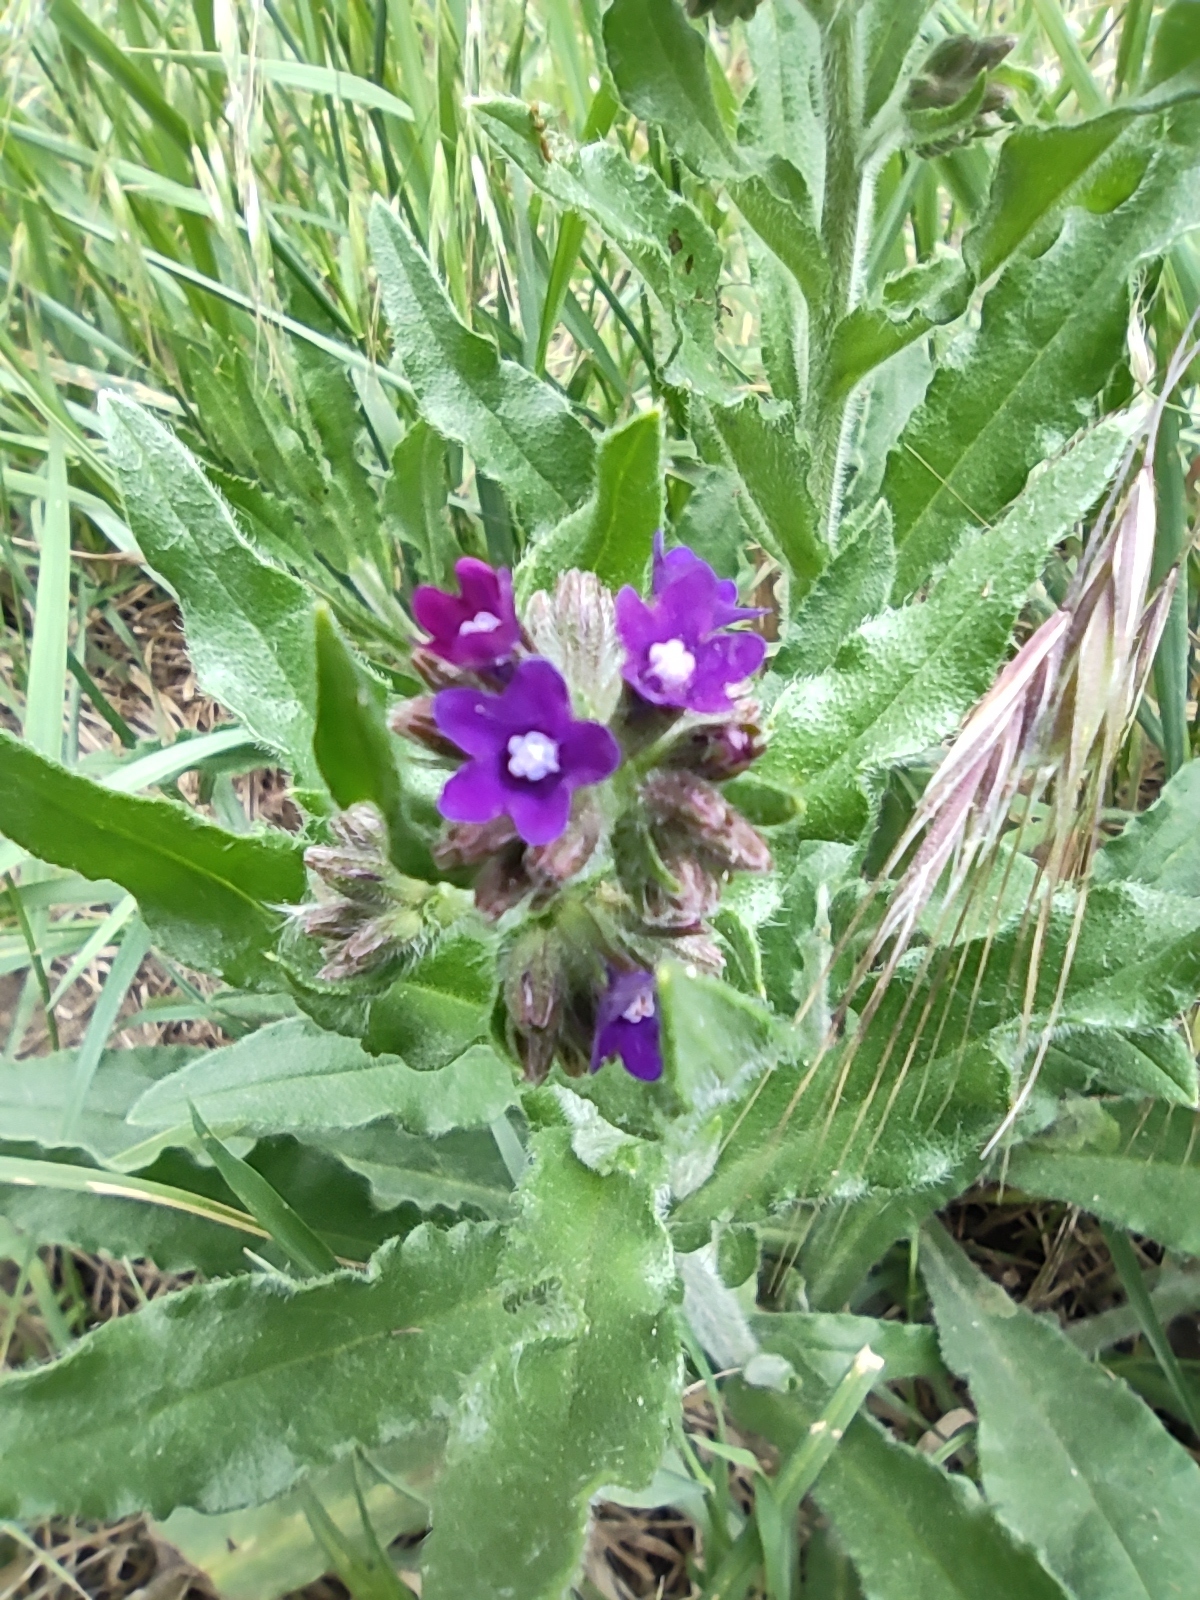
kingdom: Plantae
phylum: Tracheophyta
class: Magnoliopsida
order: Boraginales
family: Boraginaceae
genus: Anchusa
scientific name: Anchusa officinalis
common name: Alkanet
